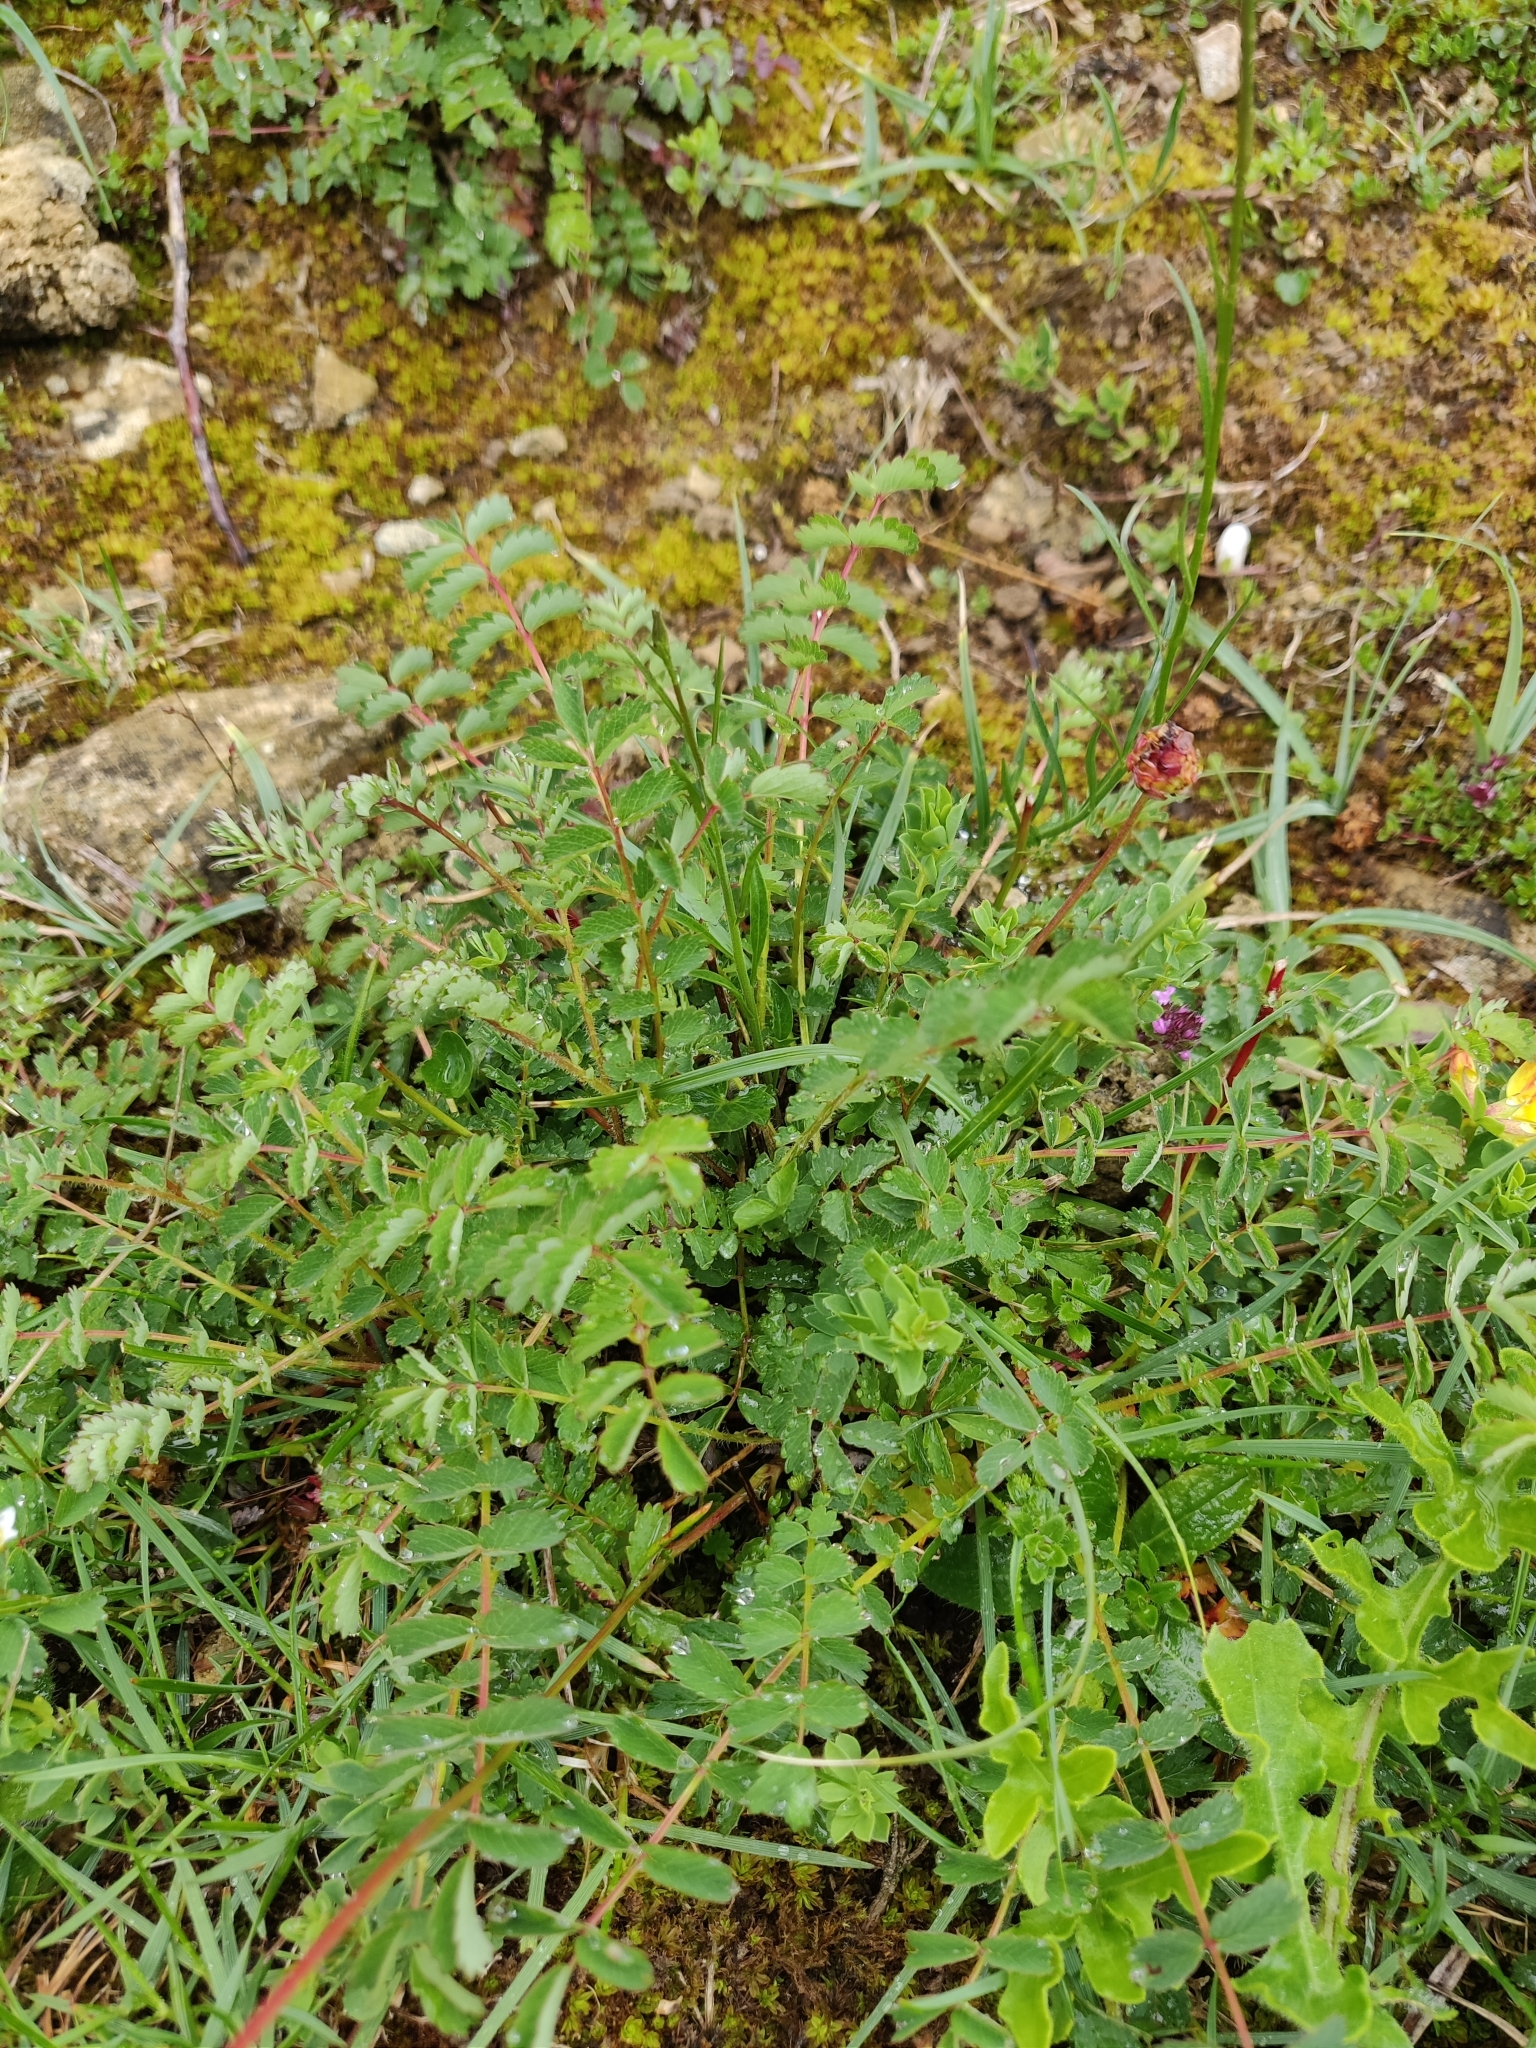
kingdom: Plantae
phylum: Tracheophyta
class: Magnoliopsida
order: Rosales
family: Rosaceae
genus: Poterium
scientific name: Poterium sanguisorba
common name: Salad burnet
